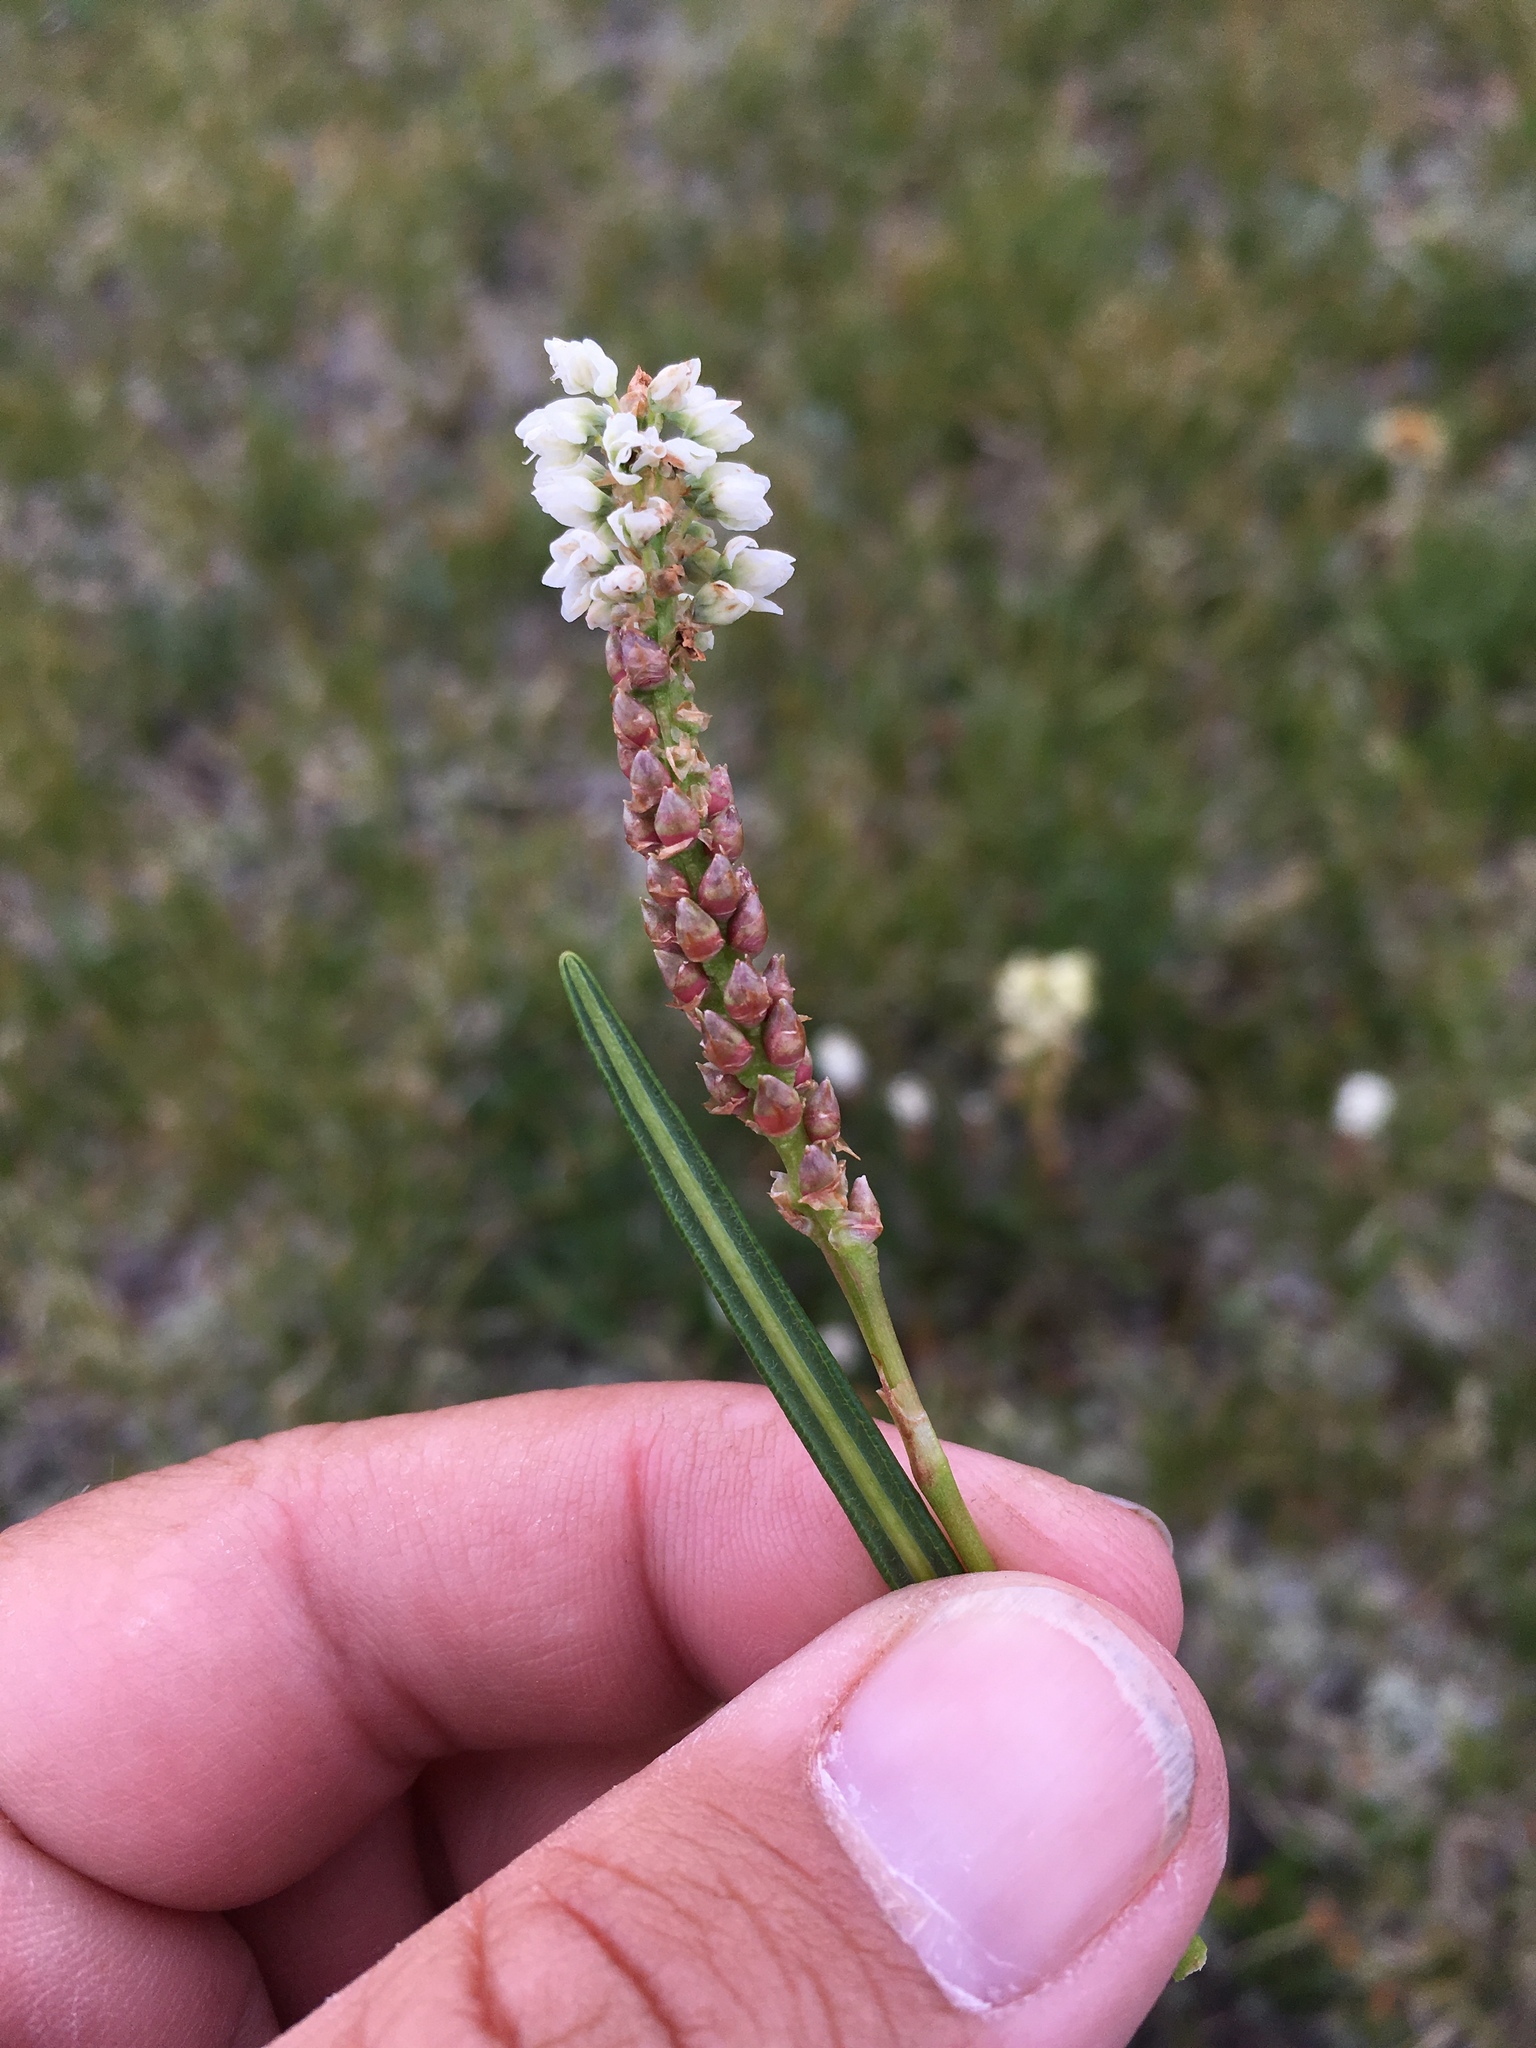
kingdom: Plantae
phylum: Tracheophyta
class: Magnoliopsida
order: Caryophyllales
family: Polygonaceae
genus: Bistorta
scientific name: Bistorta vivipara
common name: Alpine bistort
